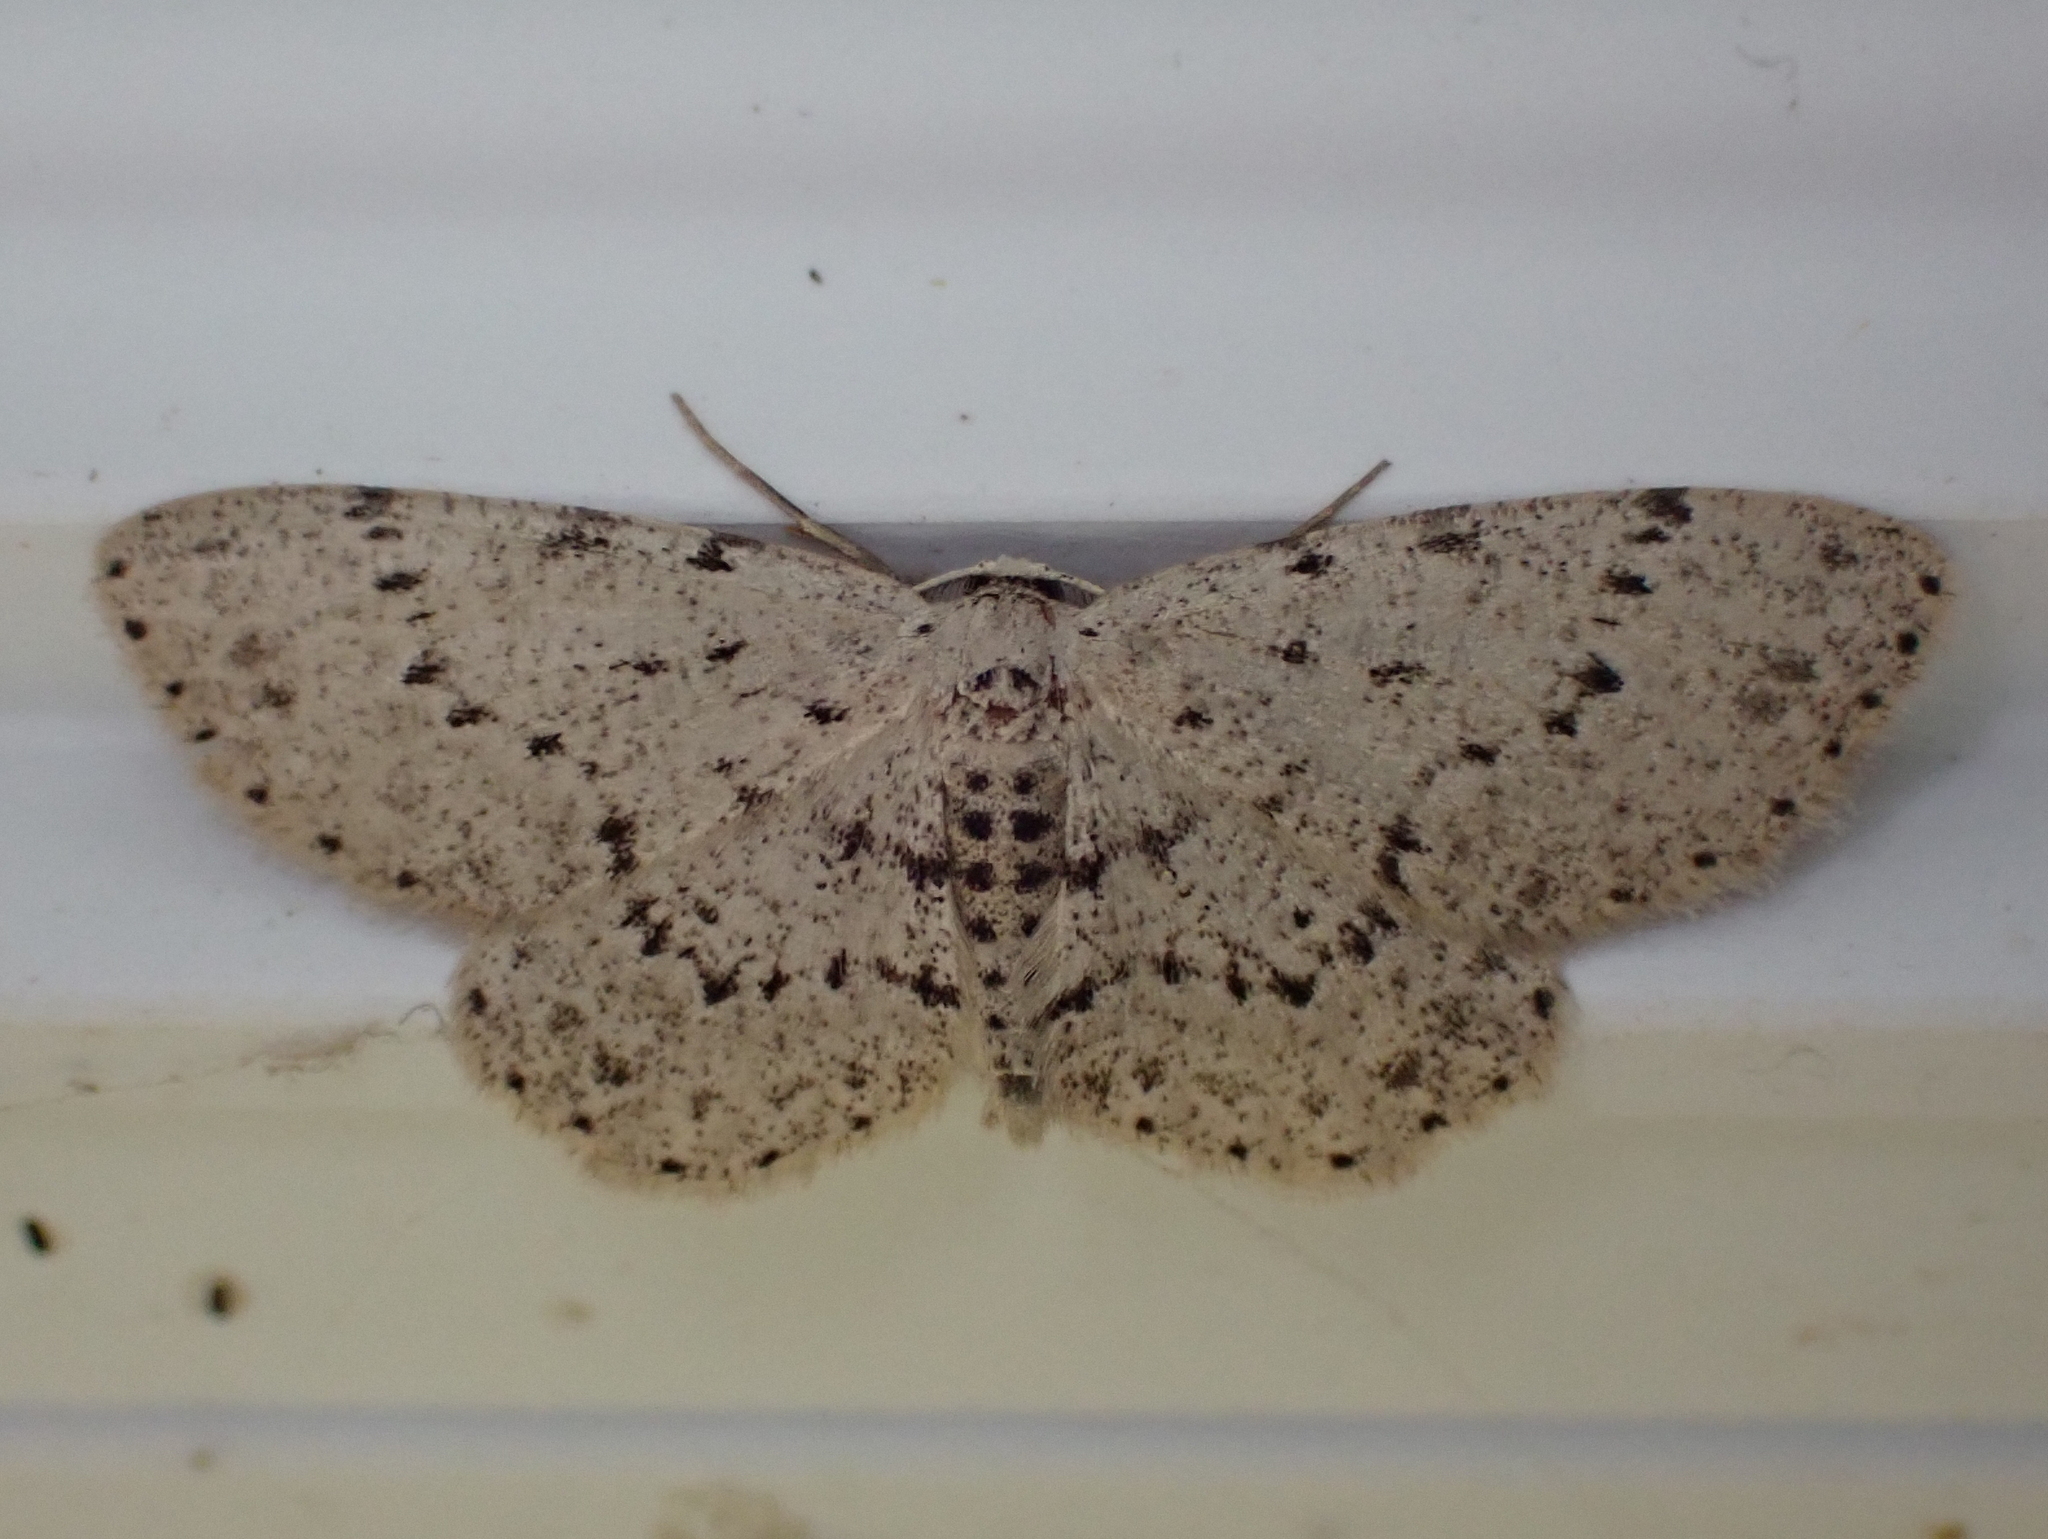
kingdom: Animalia
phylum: Arthropoda
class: Insecta
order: Lepidoptera
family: Geometridae
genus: Glena
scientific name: Glena cribrataria
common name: Dotted gray
